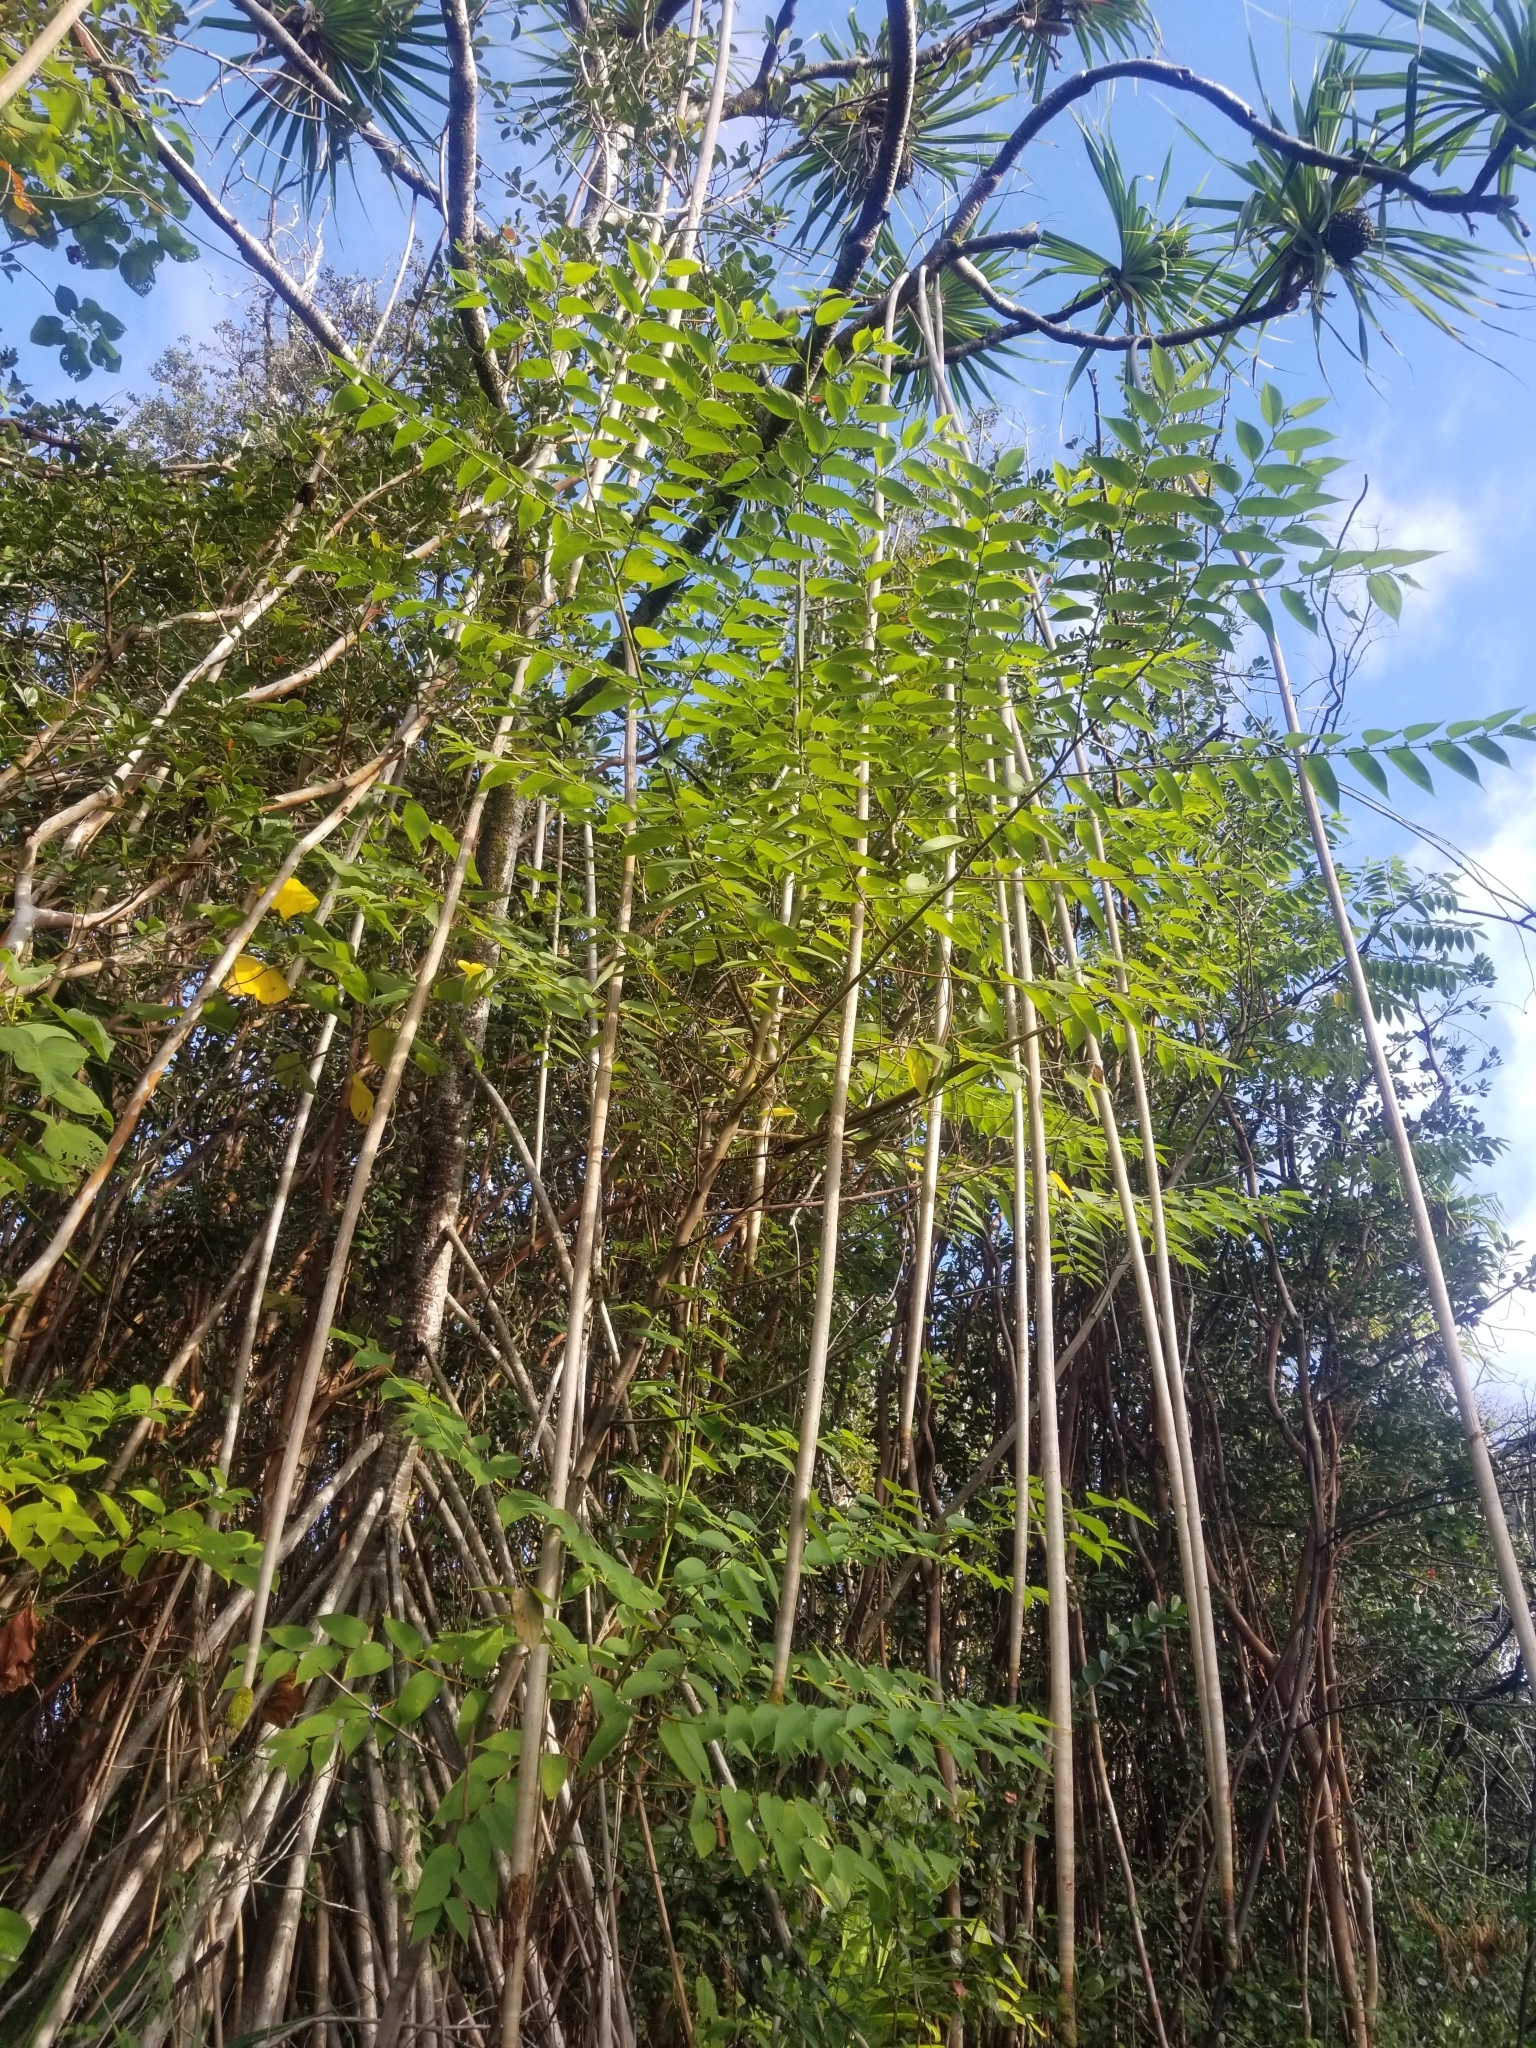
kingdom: Plantae
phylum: Tracheophyta
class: Liliopsida
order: Pandanales
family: Pandanaceae
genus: Pandanus
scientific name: Pandanus tectorius
